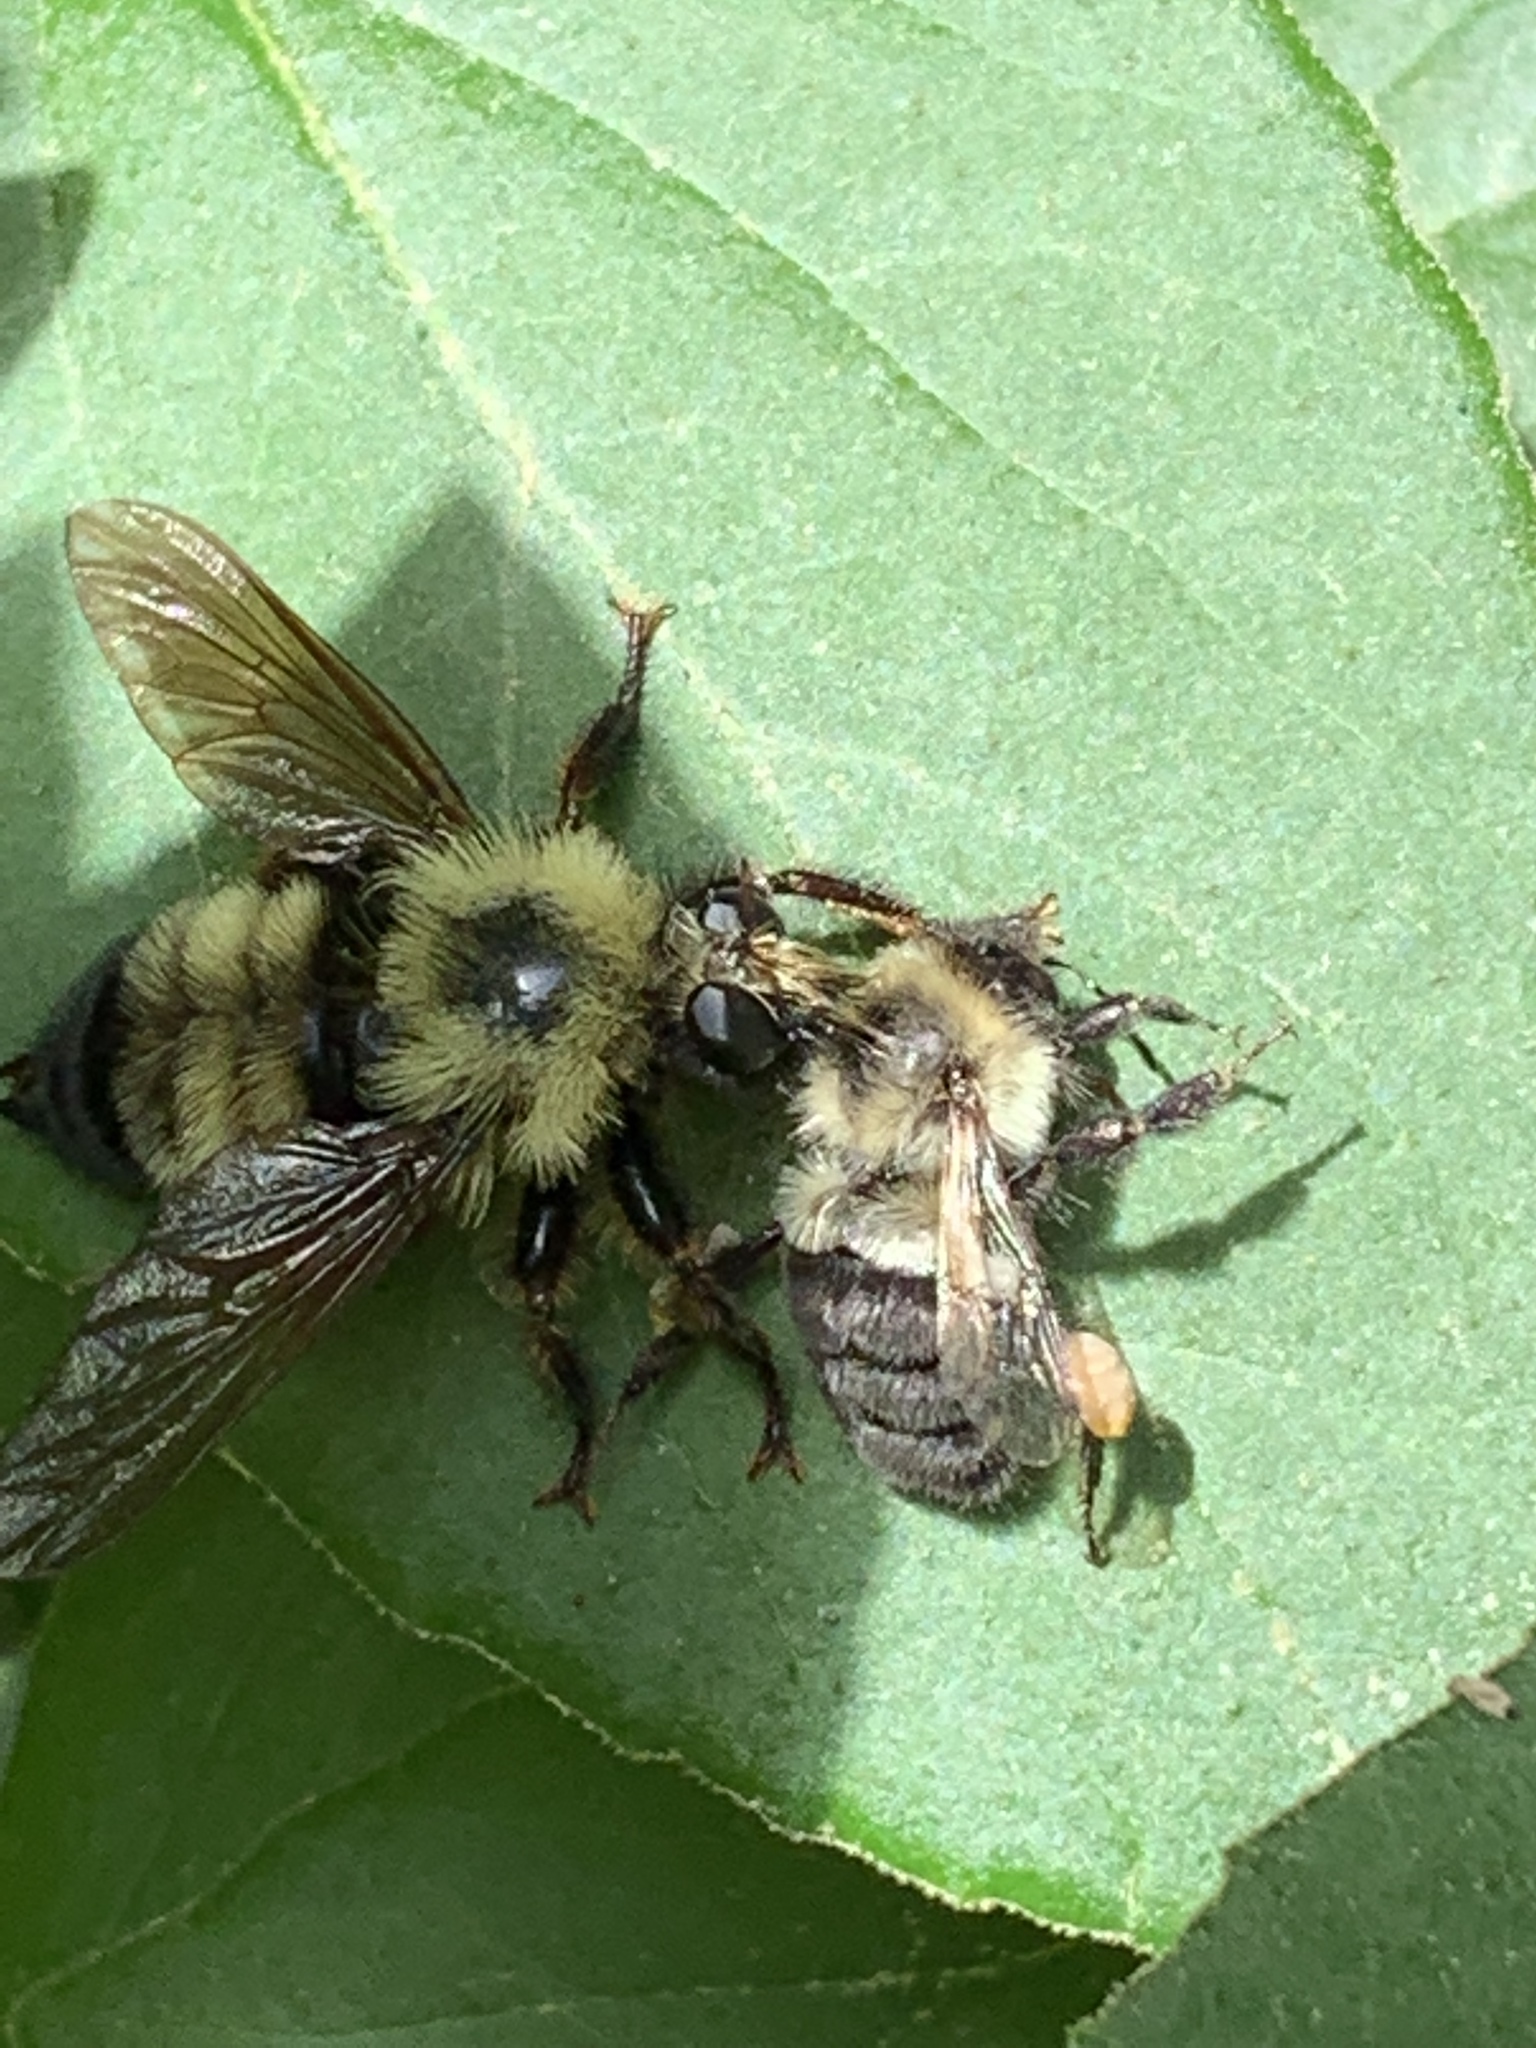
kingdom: Animalia
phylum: Arthropoda
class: Insecta
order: Diptera
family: Asilidae
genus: Laphria
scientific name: Laphria thoracica
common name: Bumble bee mimic robber fly
